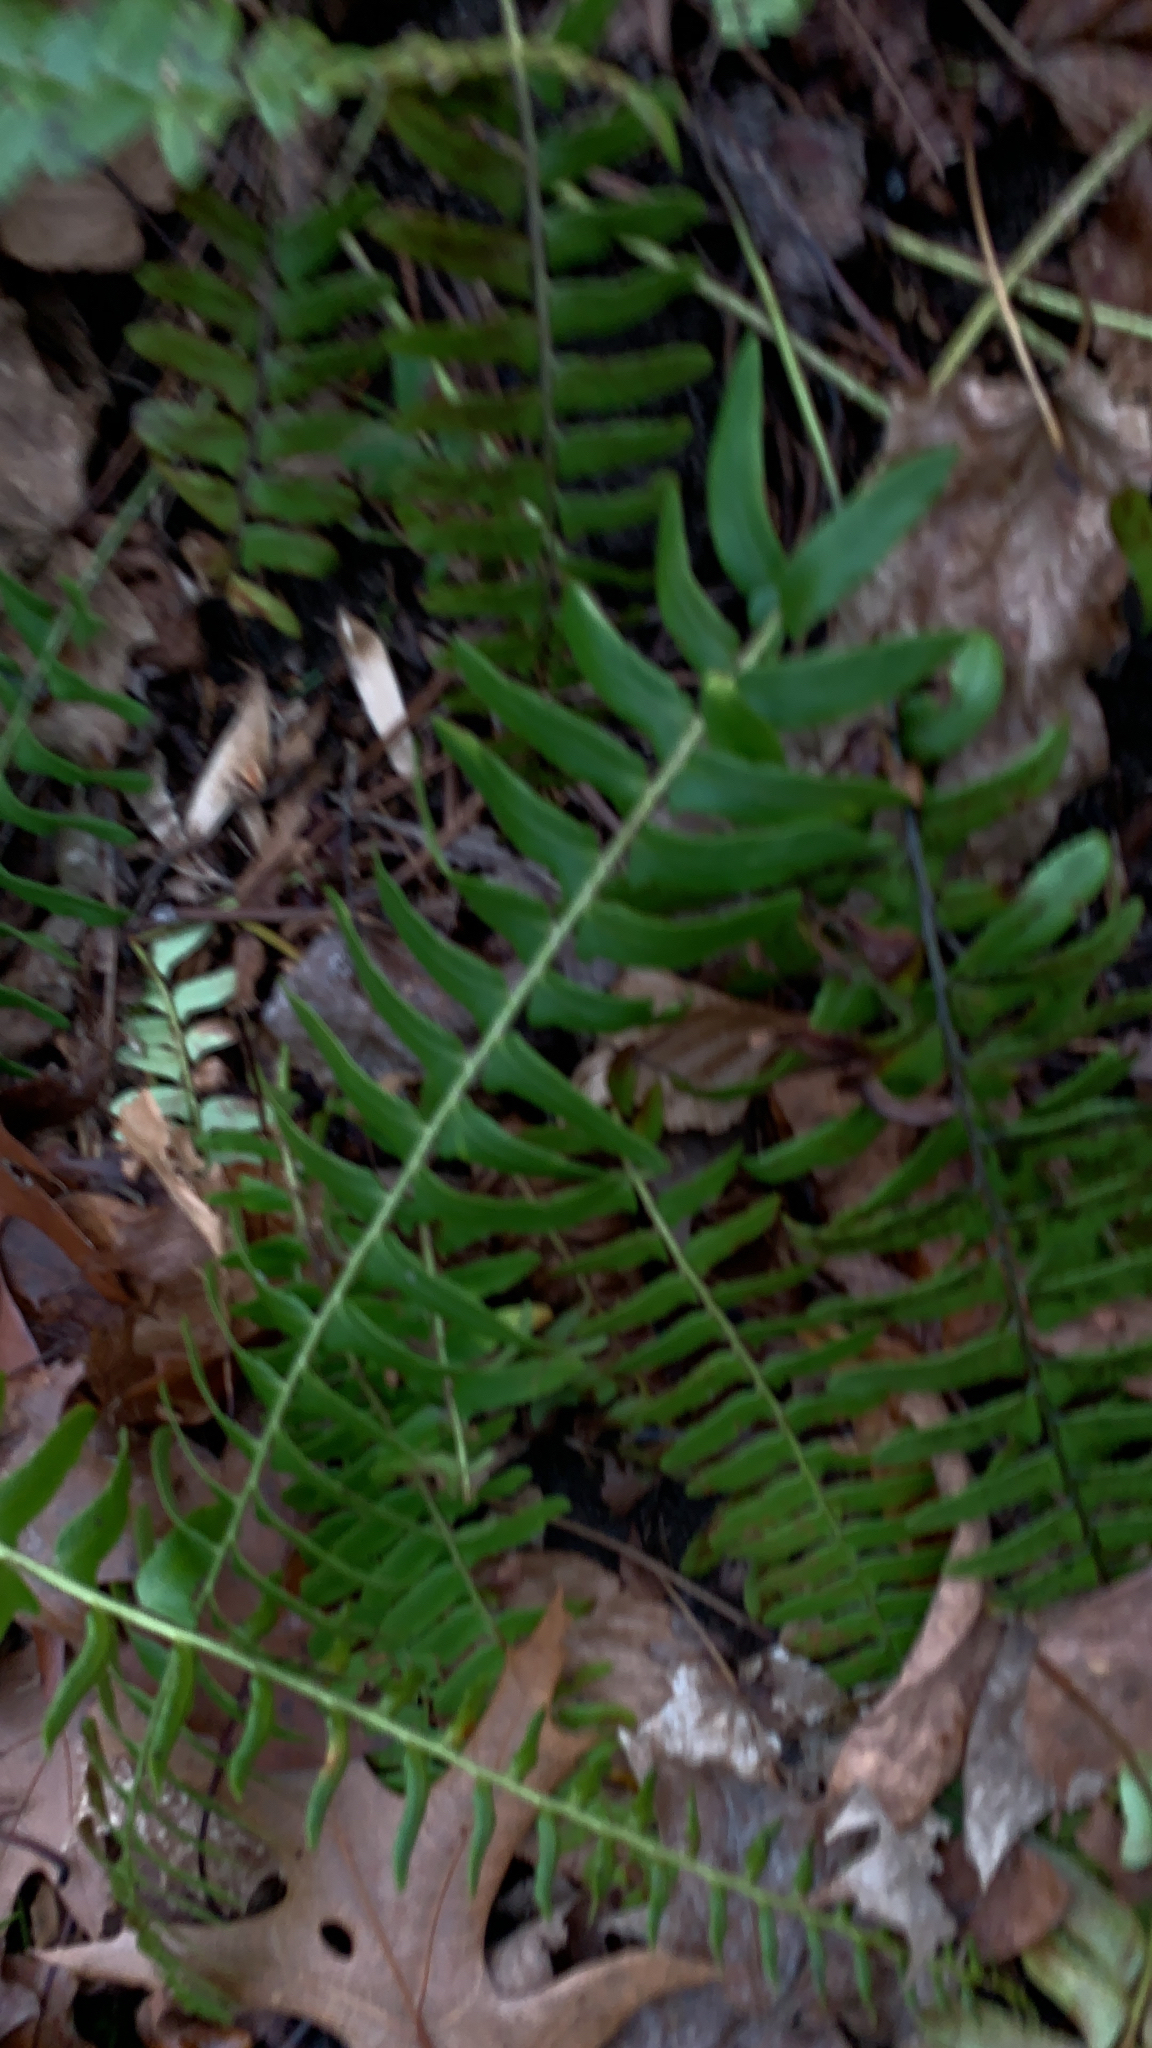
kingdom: Plantae
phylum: Tracheophyta
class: Polypodiopsida
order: Polypodiales
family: Dryopteridaceae
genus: Polystichum
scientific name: Polystichum acrostichoides
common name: Christmas fern
